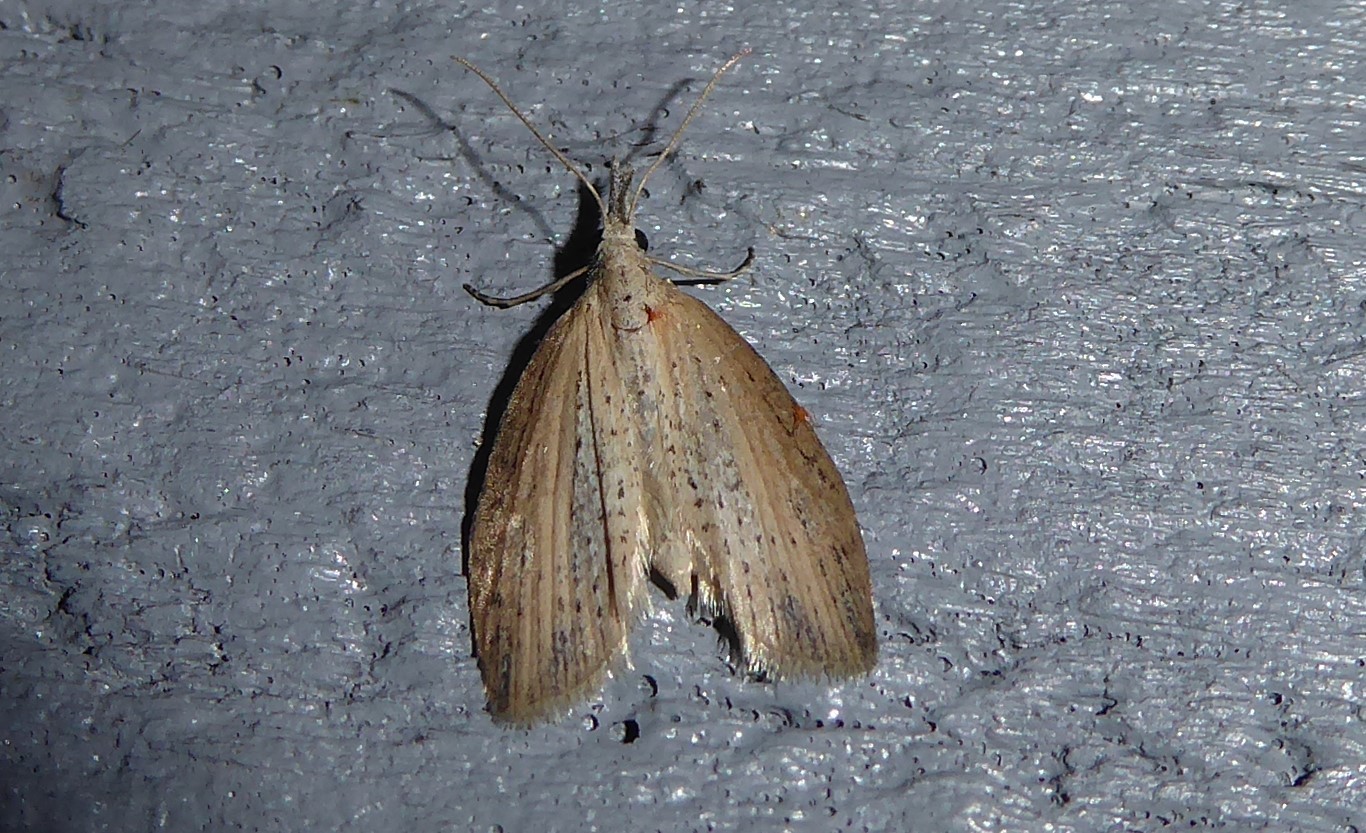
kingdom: Animalia
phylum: Arthropoda
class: Insecta
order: Lepidoptera
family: Geometridae
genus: Microdes
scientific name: Microdes epicryptis
